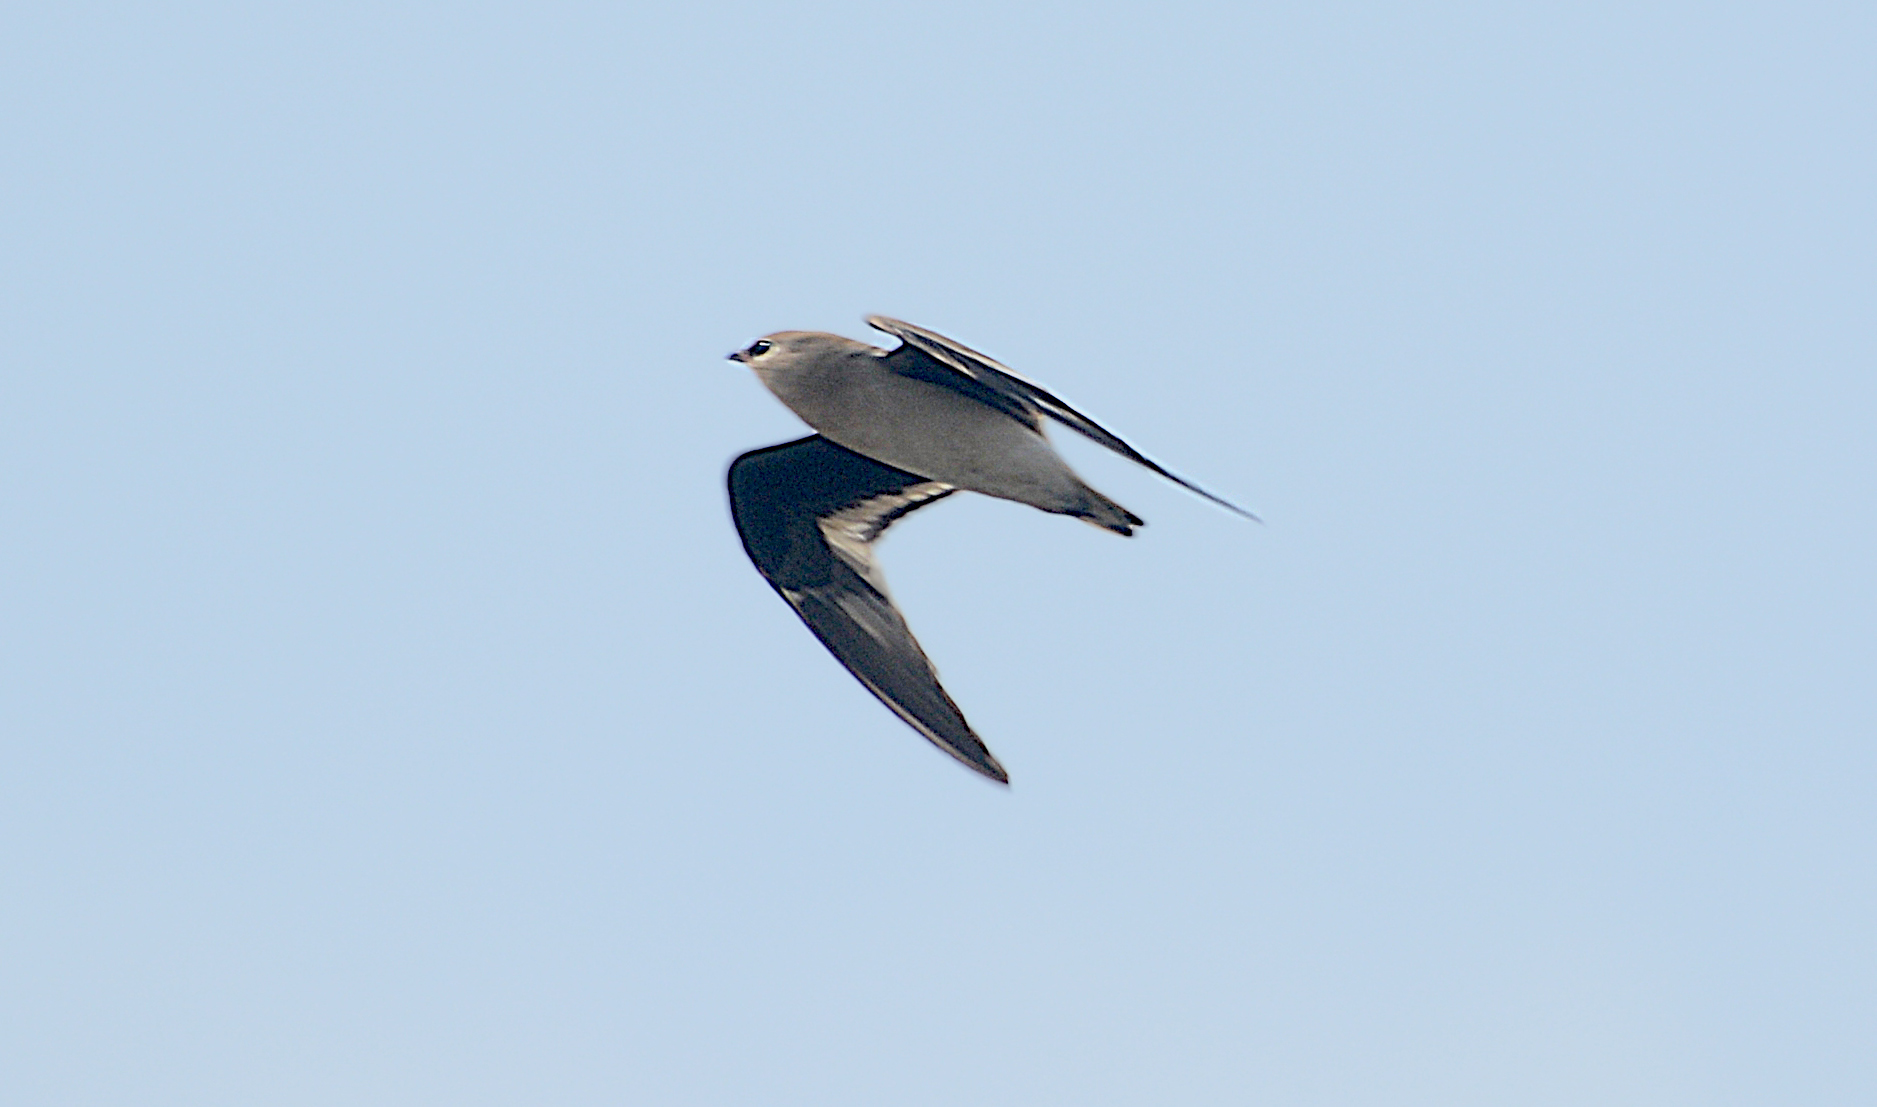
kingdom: Animalia
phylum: Chordata
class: Aves
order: Charadriiformes
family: Glareolidae
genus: Glareola
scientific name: Glareola lactea
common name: Small pratincole
